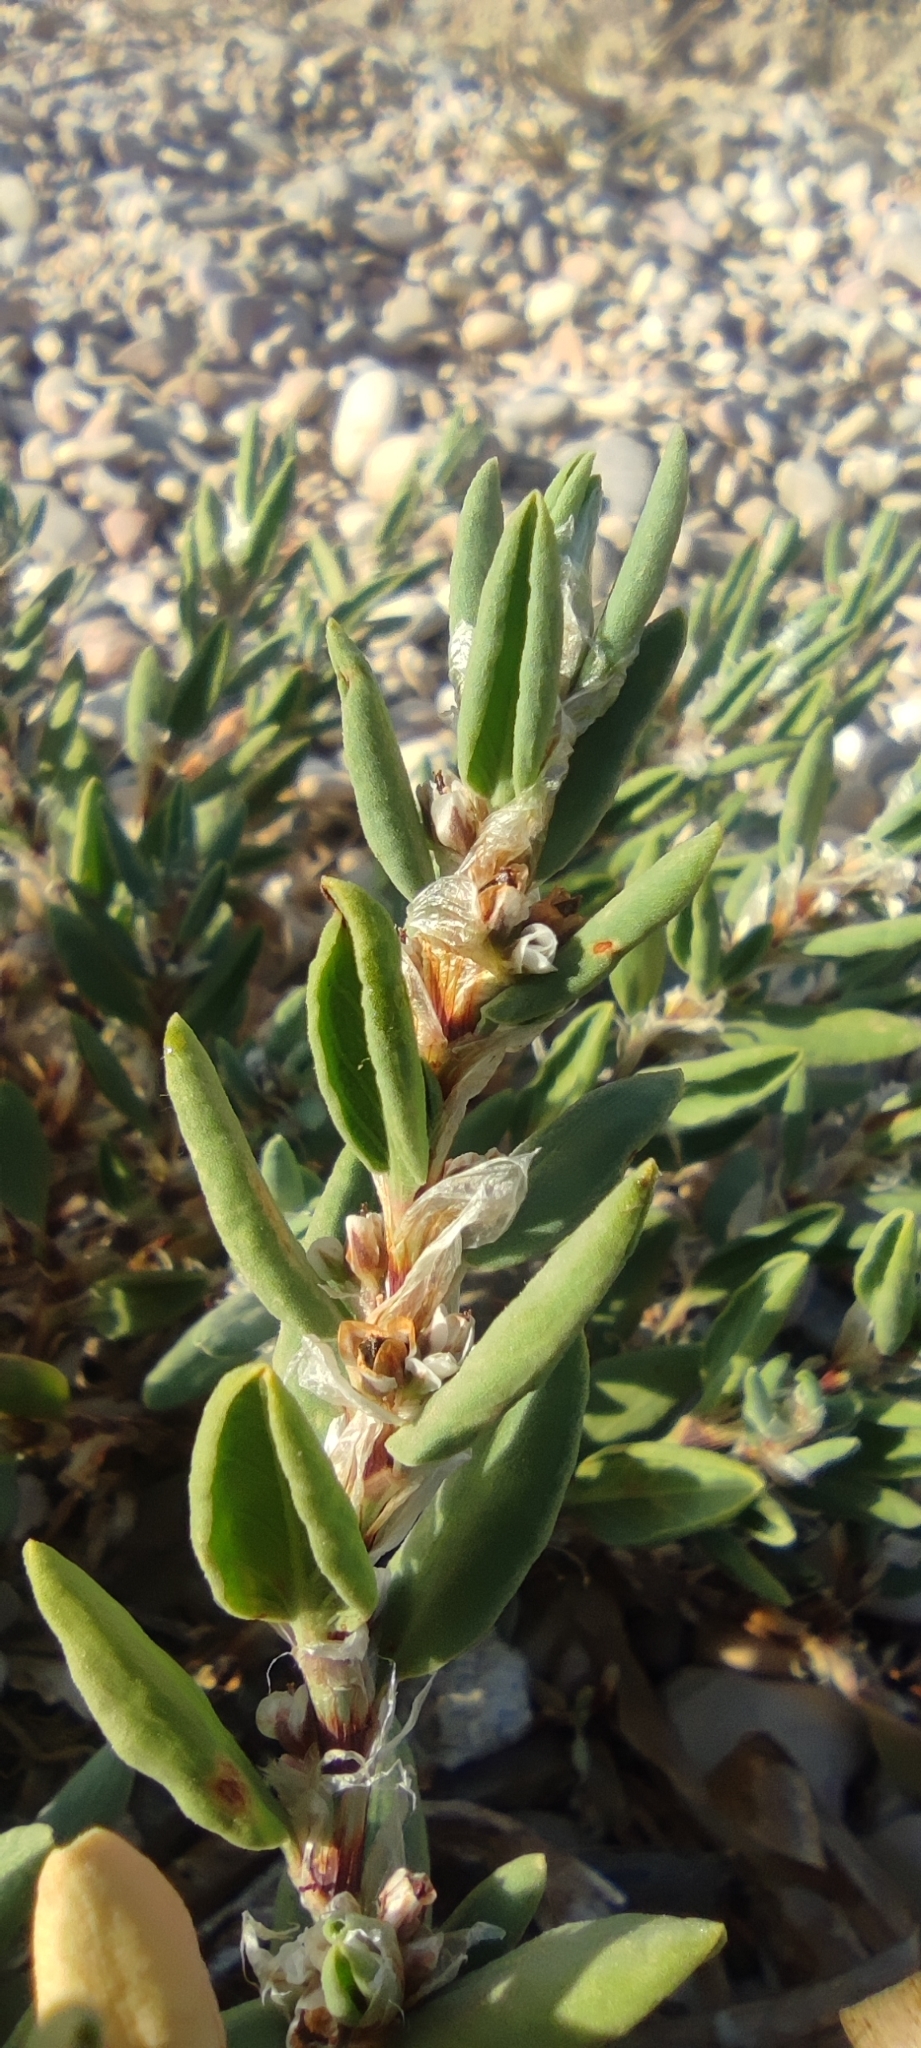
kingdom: Plantae
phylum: Tracheophyta
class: Magnoliopsida
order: Caryophyllales
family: Polygonaceae
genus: Polygonum
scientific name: Polygonum maritimum
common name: Sea knotgrass
